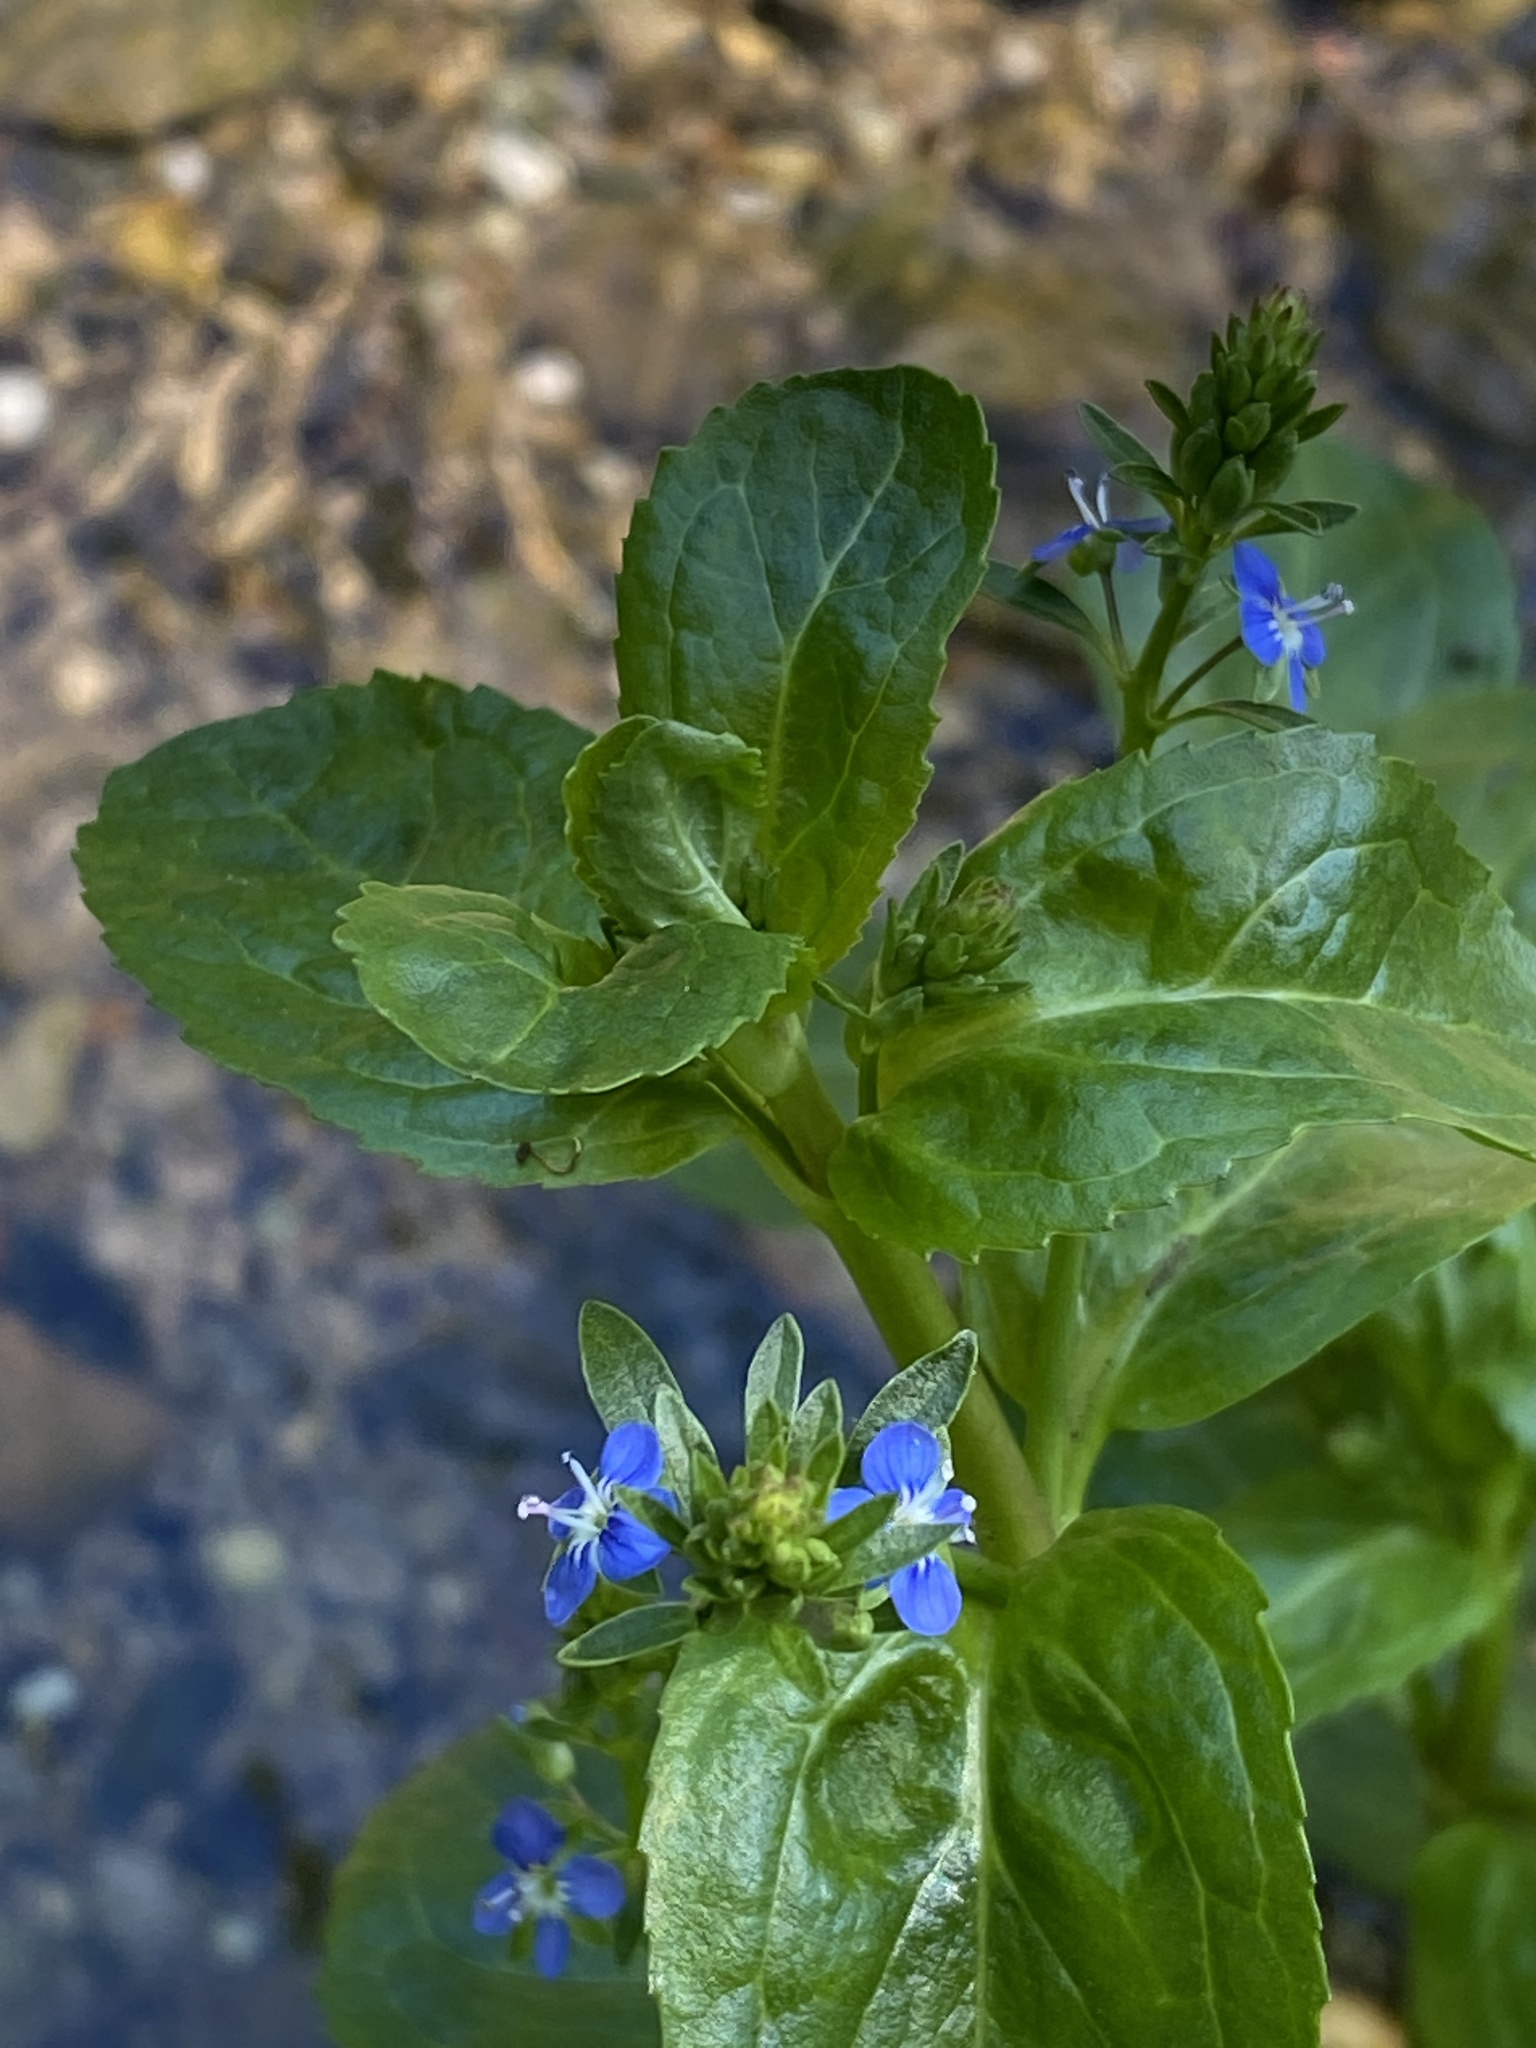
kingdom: Plantae
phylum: Tracheophyta
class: Magnoliopsida
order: Lamiales
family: Plantaginaceae
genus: Veronica
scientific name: Veronica beccabunga
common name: Brooklime
